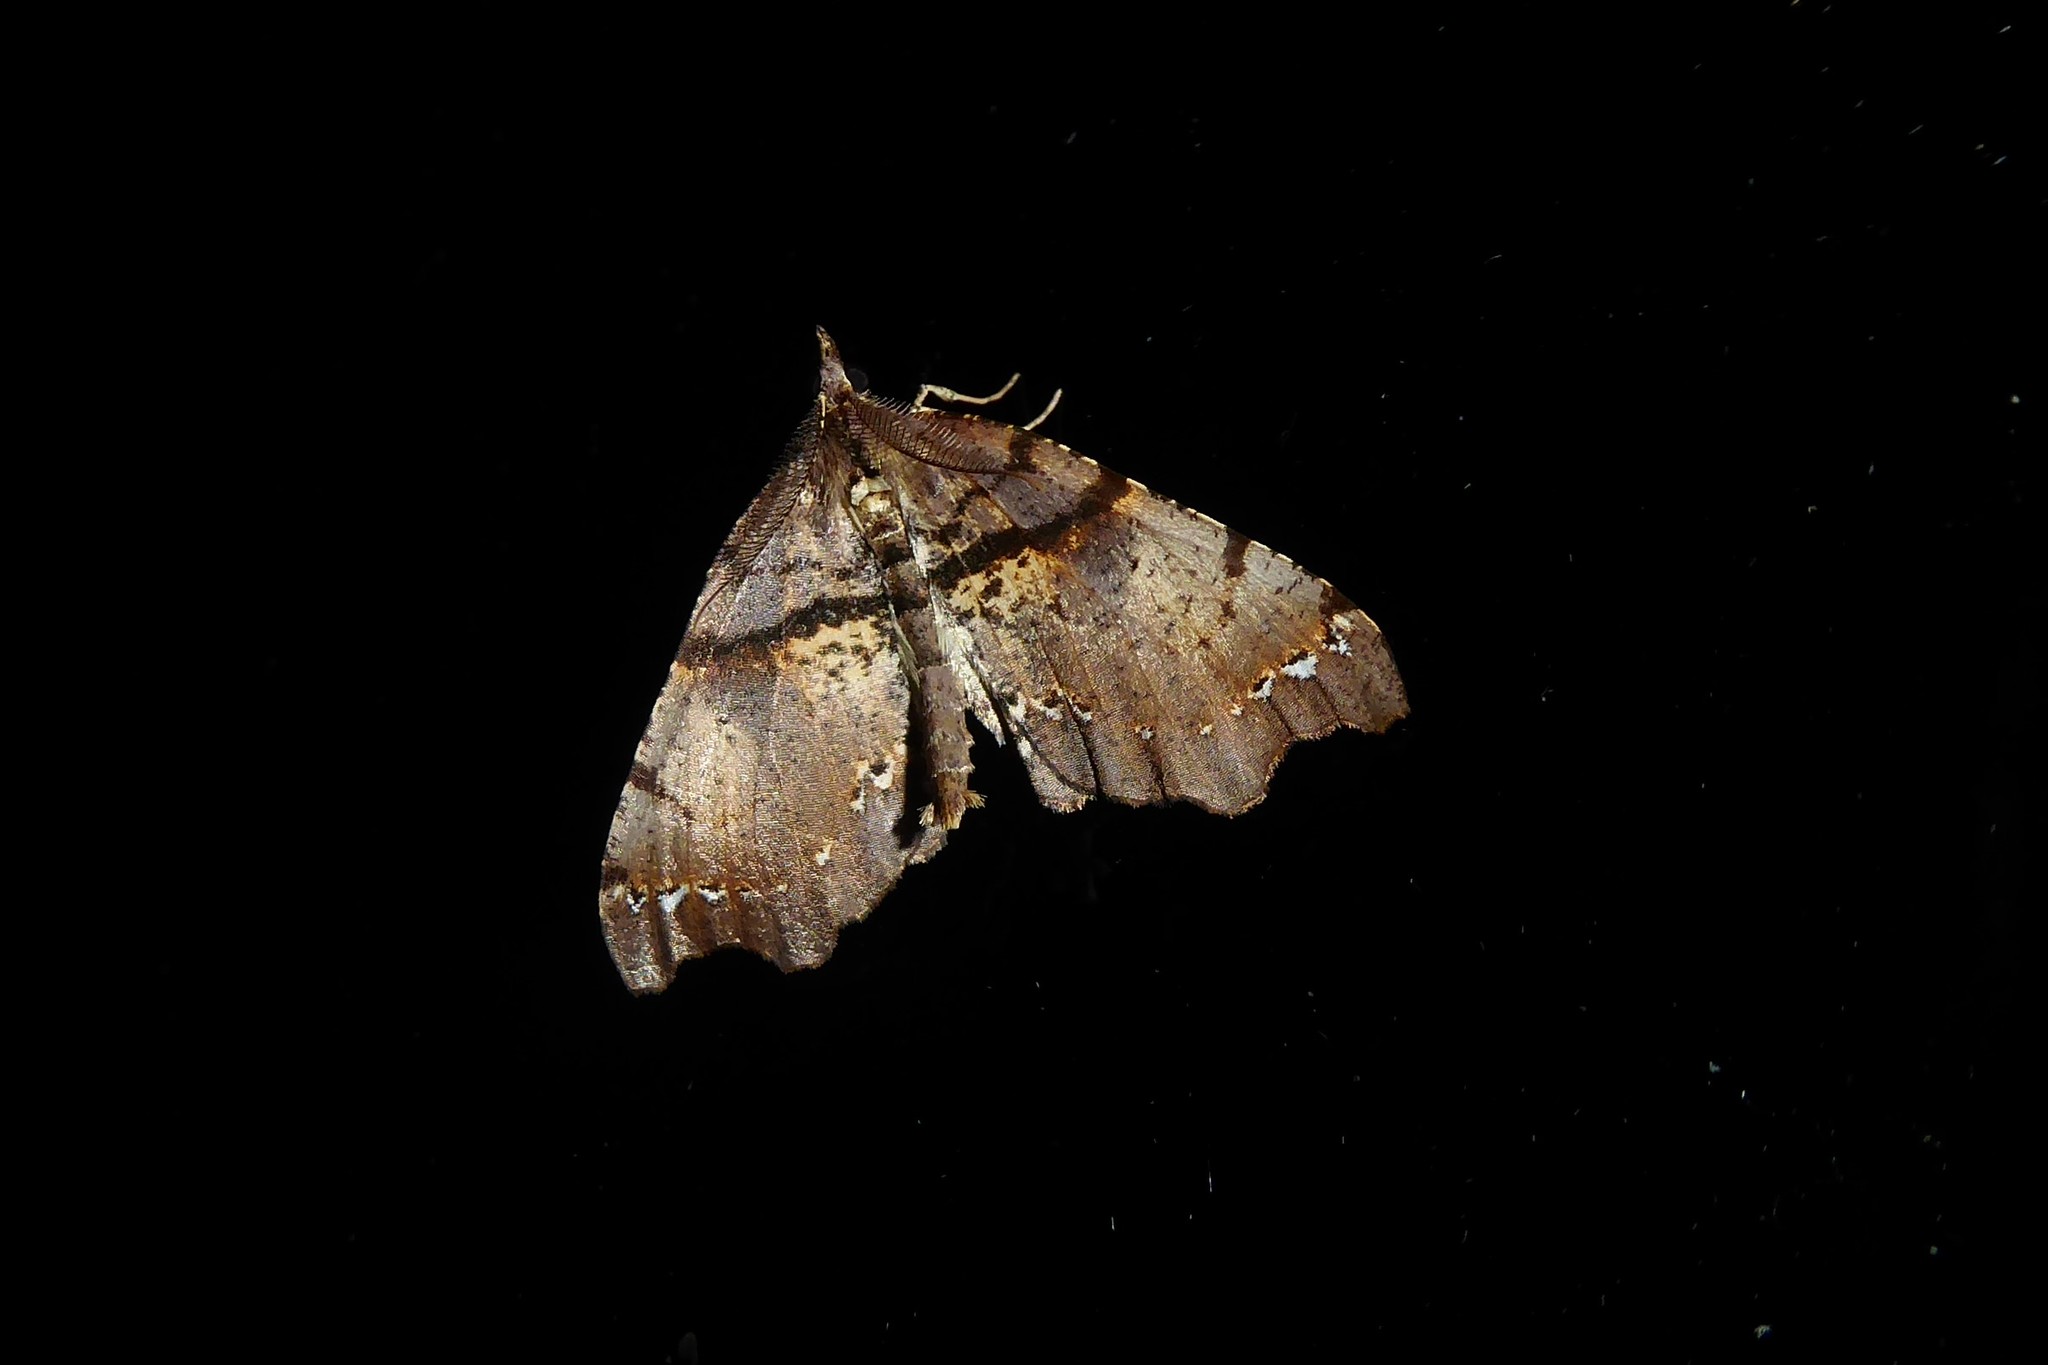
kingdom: Animalia
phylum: Arthropoda
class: Insecta
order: Lepidoptera
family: Geometridae
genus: Chalastra
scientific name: Chalastra pellurgata
